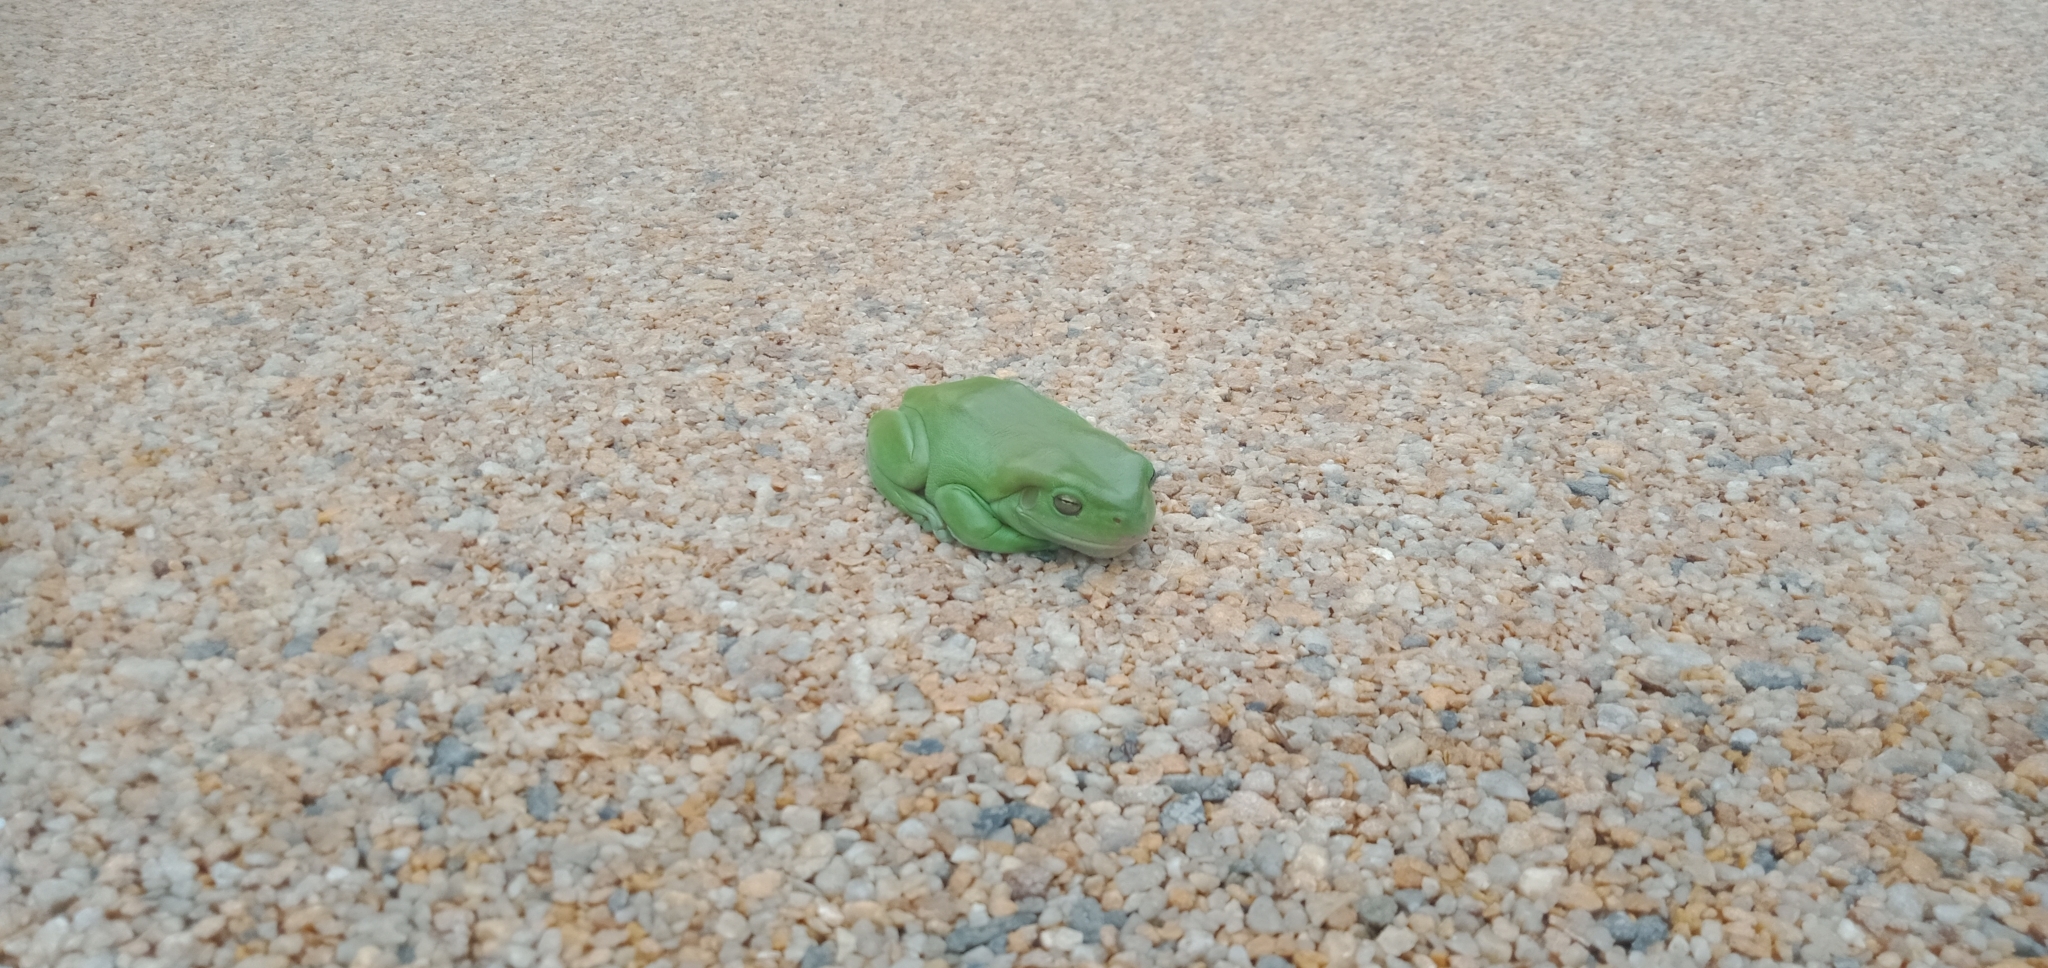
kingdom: Animalia
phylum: Chordata
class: Amphibia
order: Anura
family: Pelodryadidae
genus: Ranoidea
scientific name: Ranoidea caerulea
